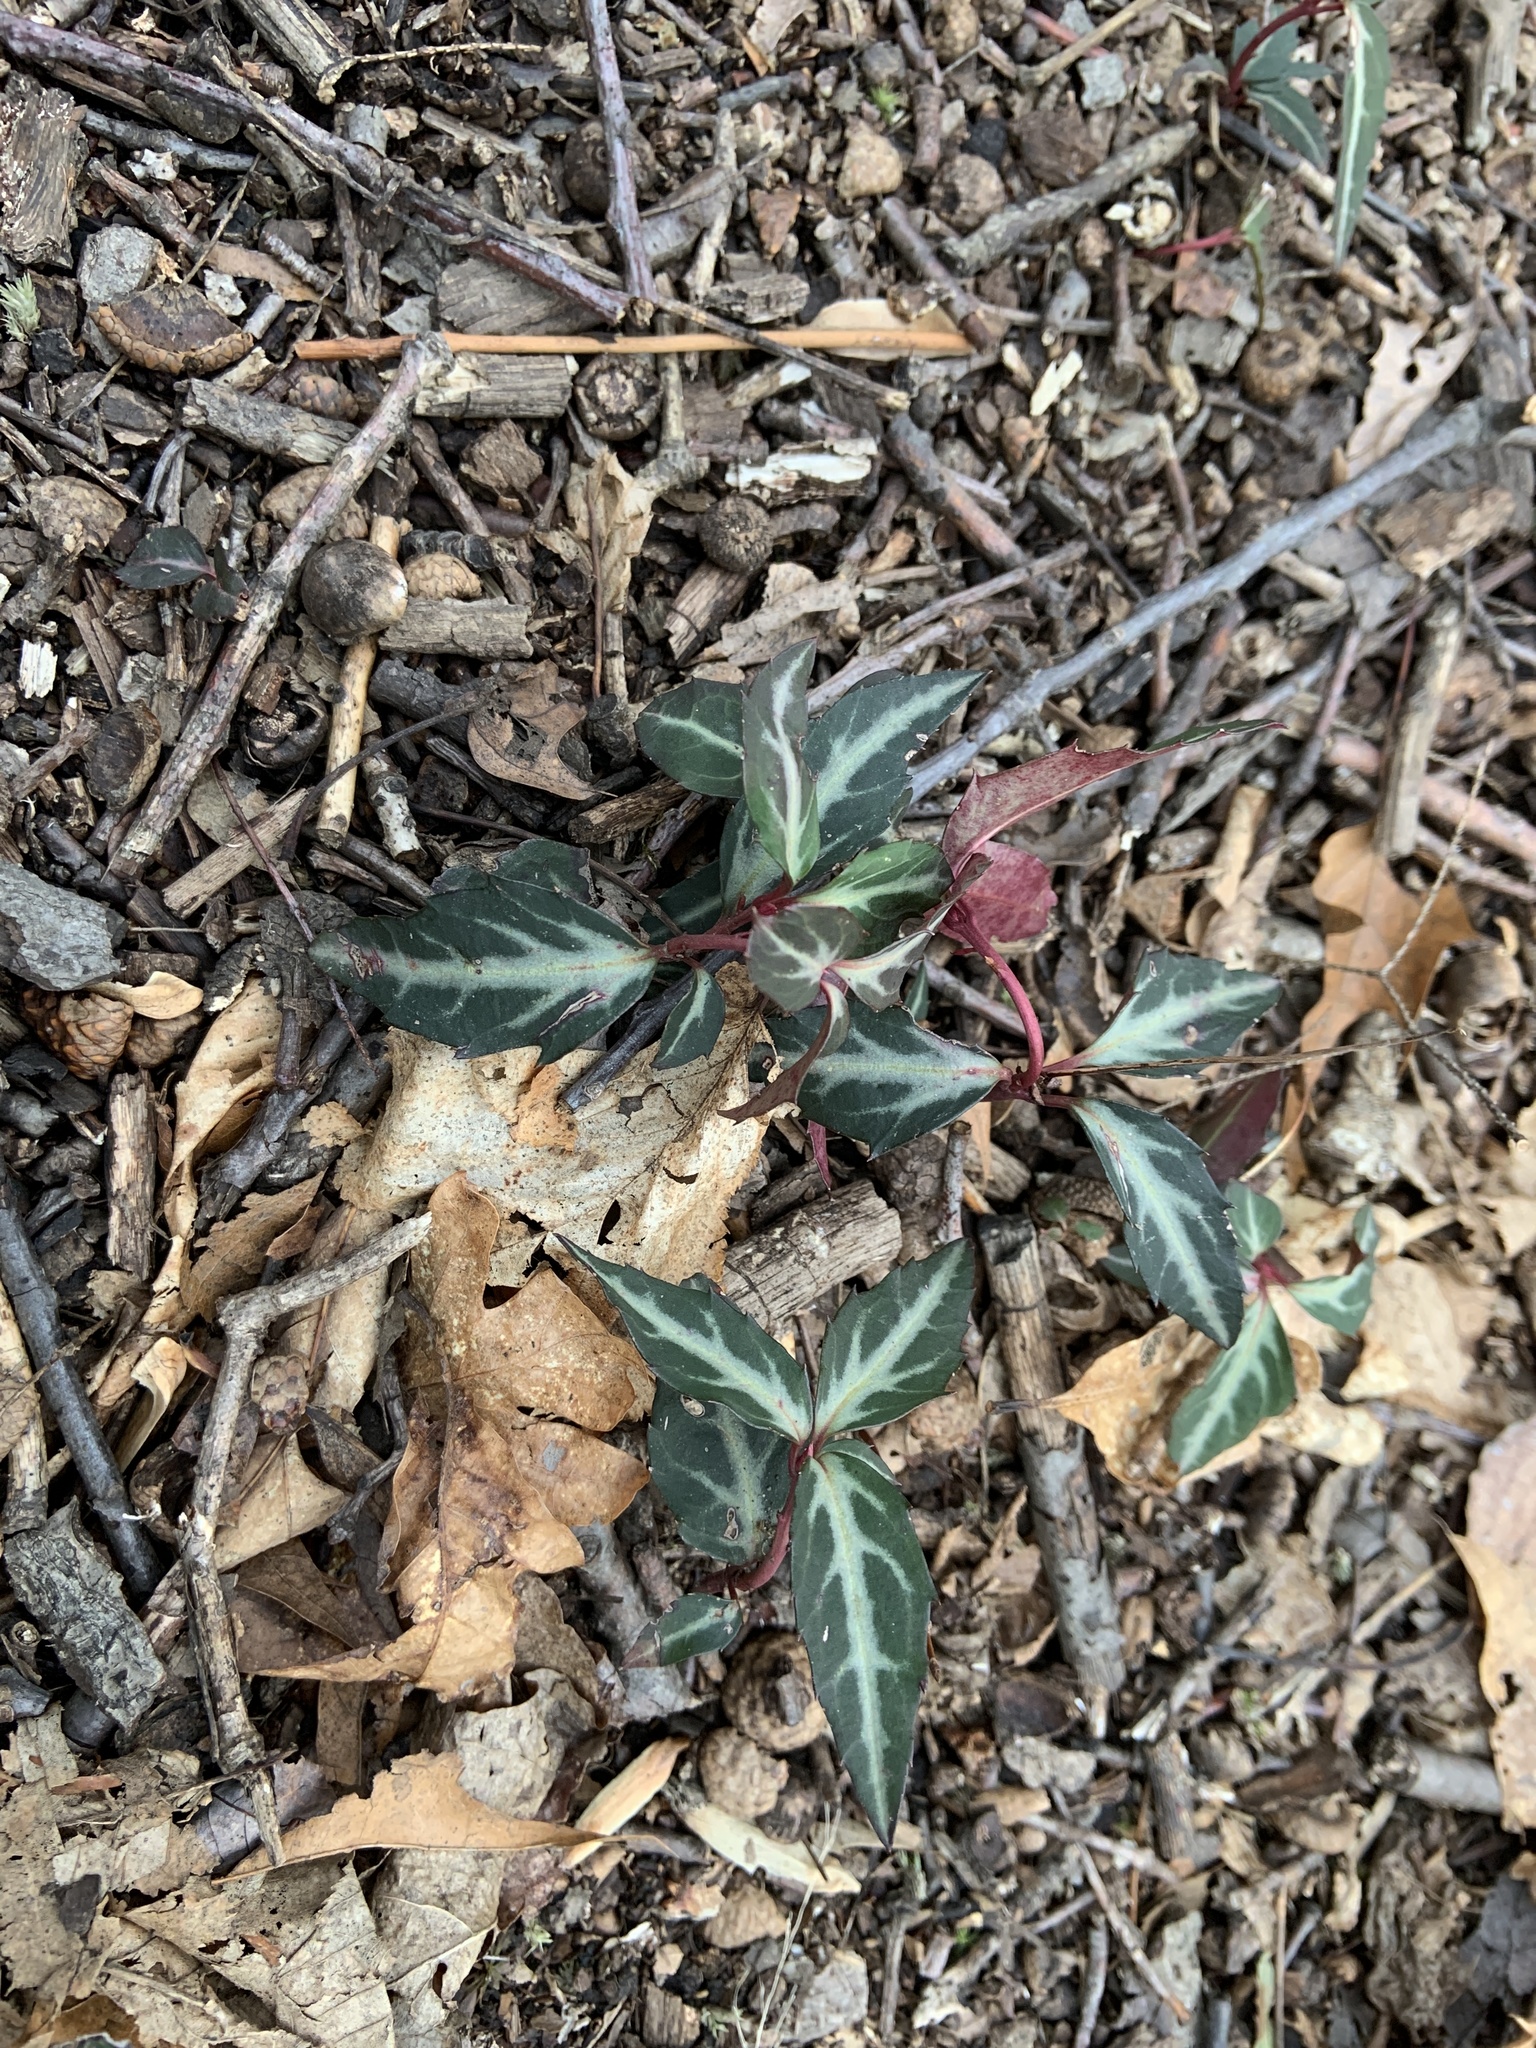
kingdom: Plantae
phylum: Tracheophyta
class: Magnoliopsida
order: Ericales
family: Ericaceae
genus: Chimaphila
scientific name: Chimaphila maculata
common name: Spotted pipsissewa
